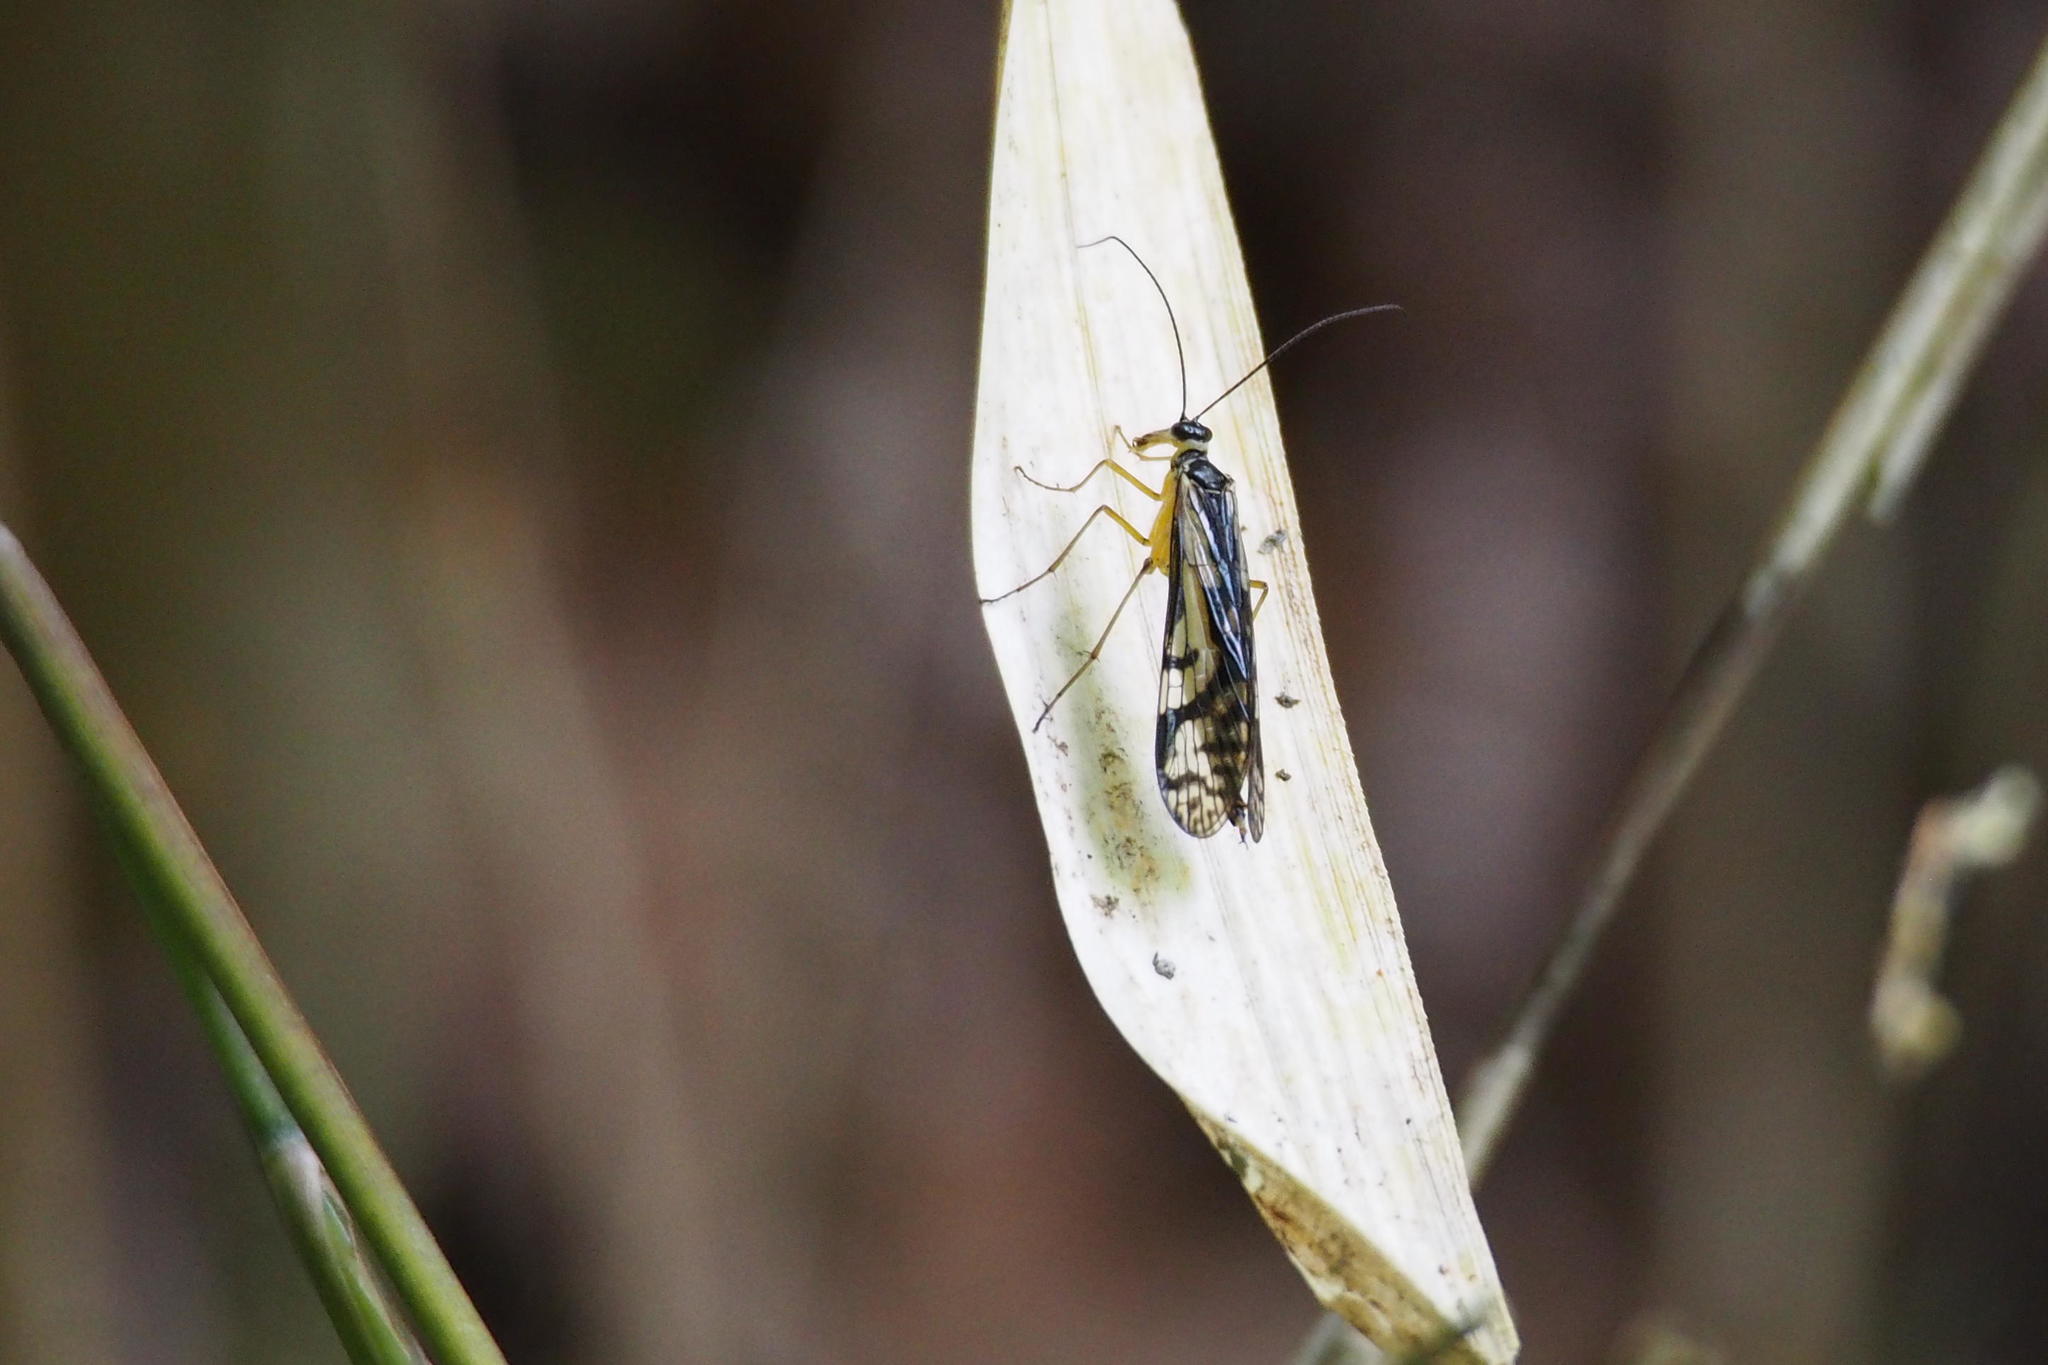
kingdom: Animalia
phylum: Arthropoda
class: Insecta
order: Mecoptera
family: Panorpidae
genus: Panorpa
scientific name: Panorpa multifasciaria
